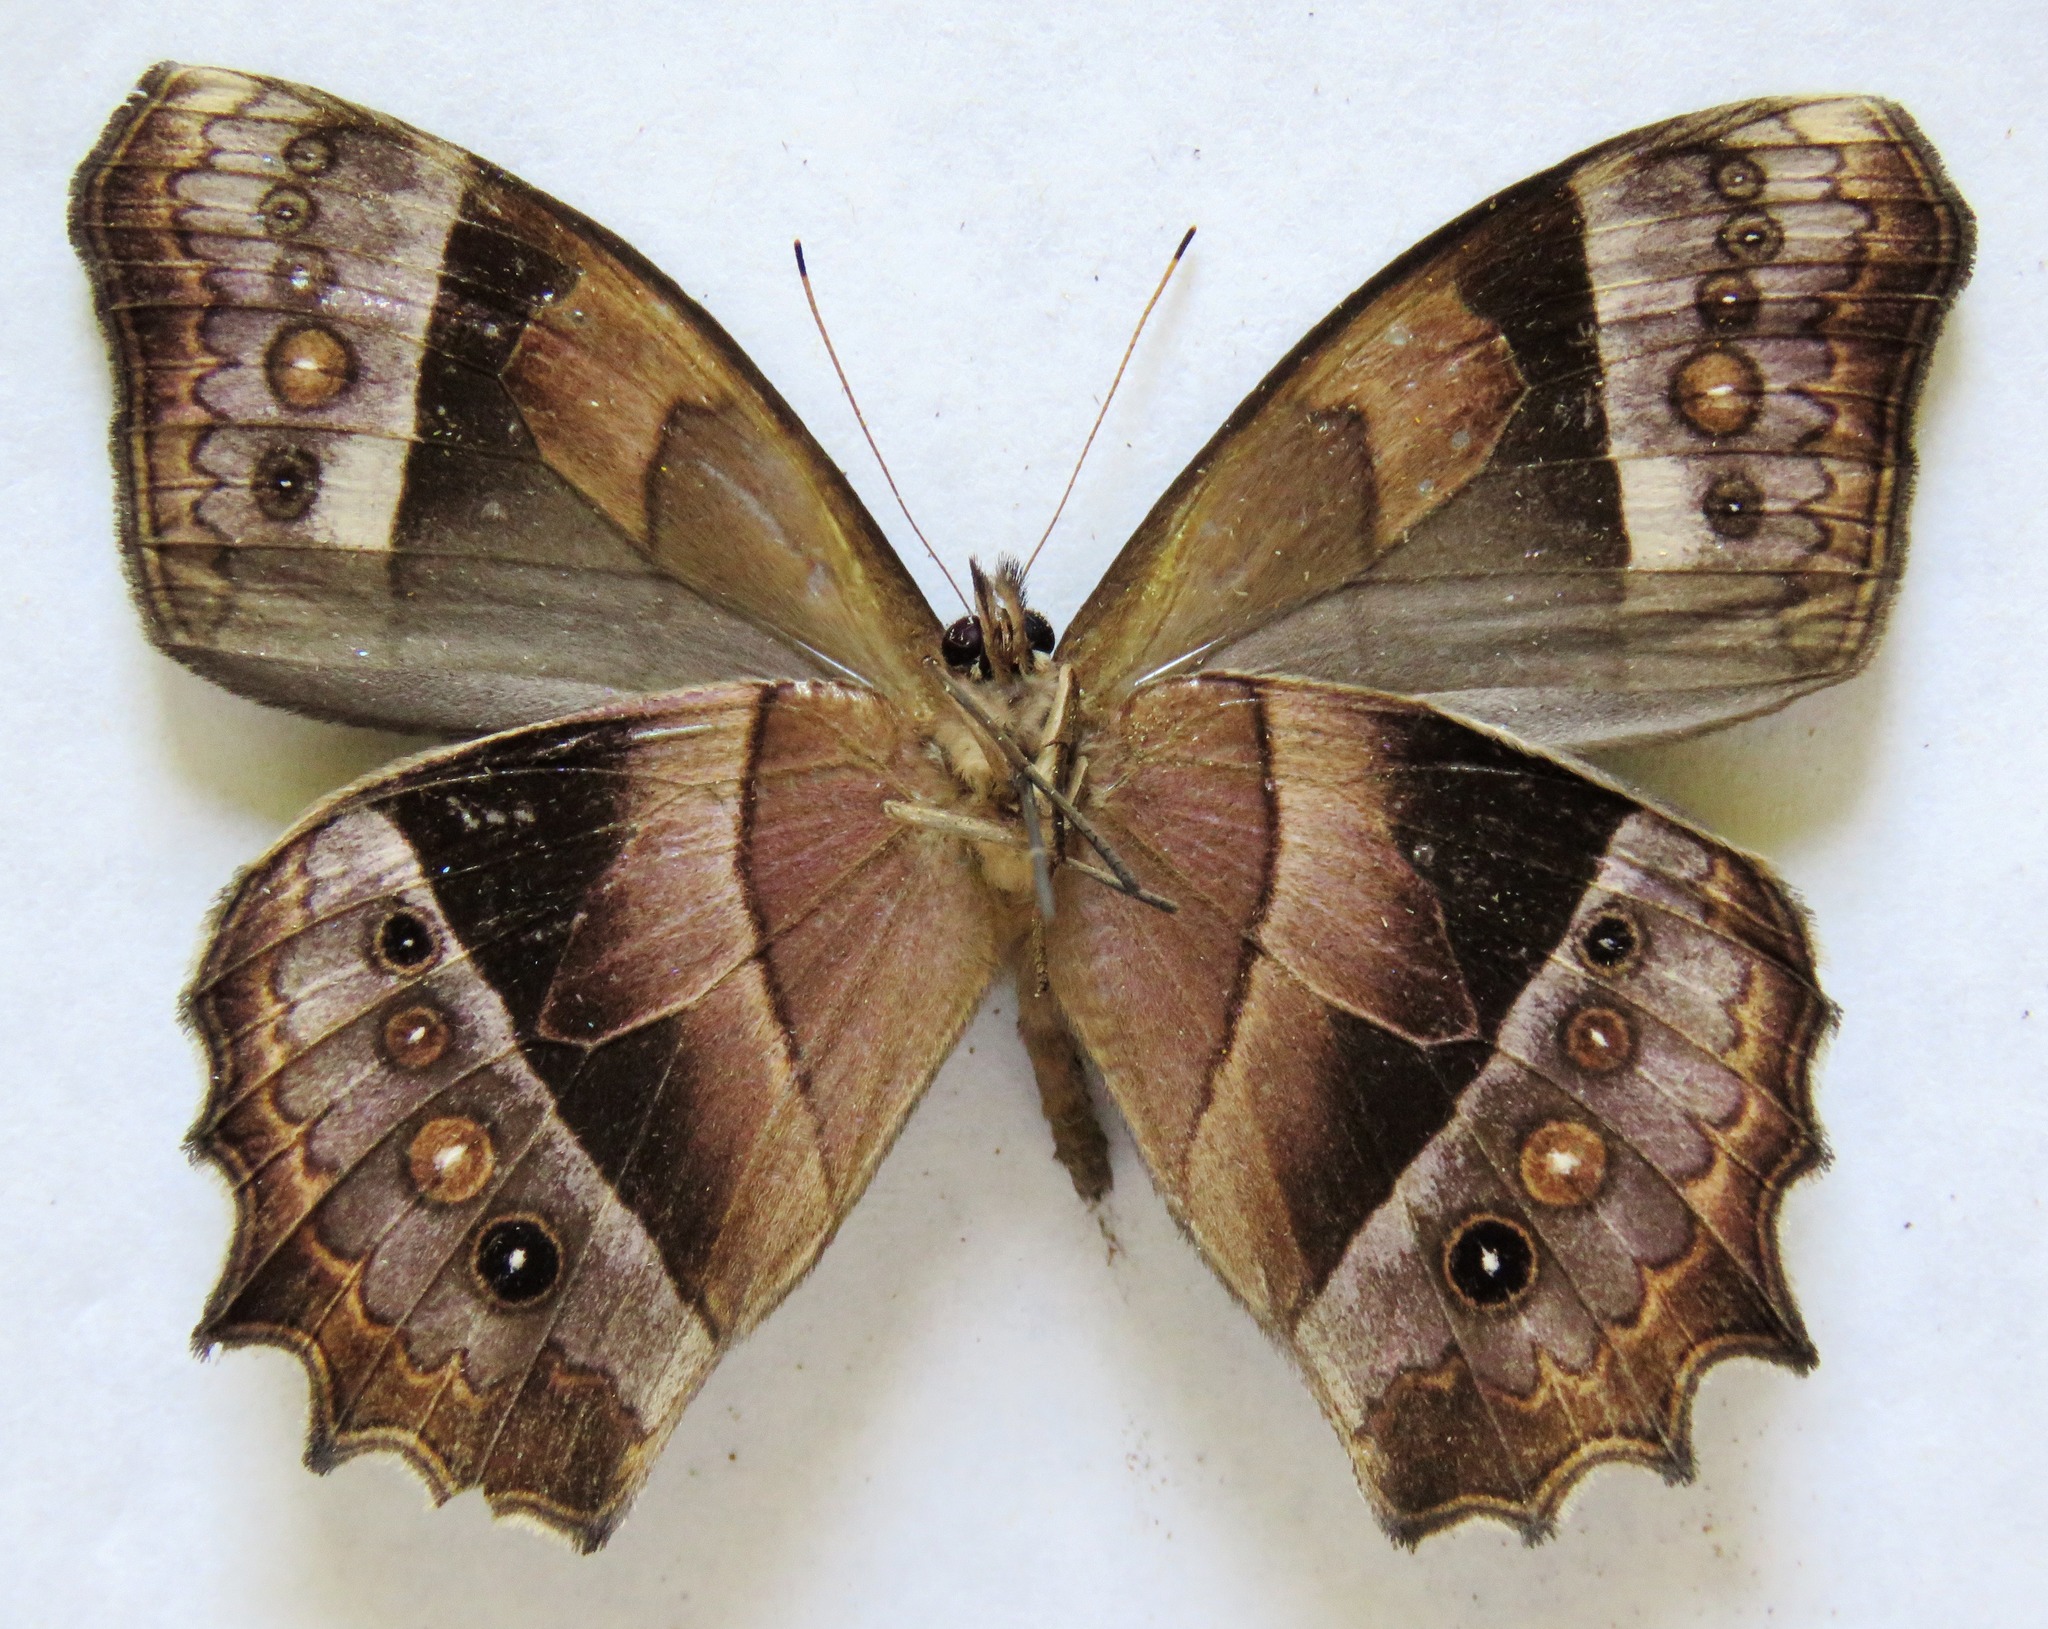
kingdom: Animalia
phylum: Arthropoda
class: Insecta
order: Lepidoptera
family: Nymphalidae
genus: Taygetis
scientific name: Taygetis andromeda
